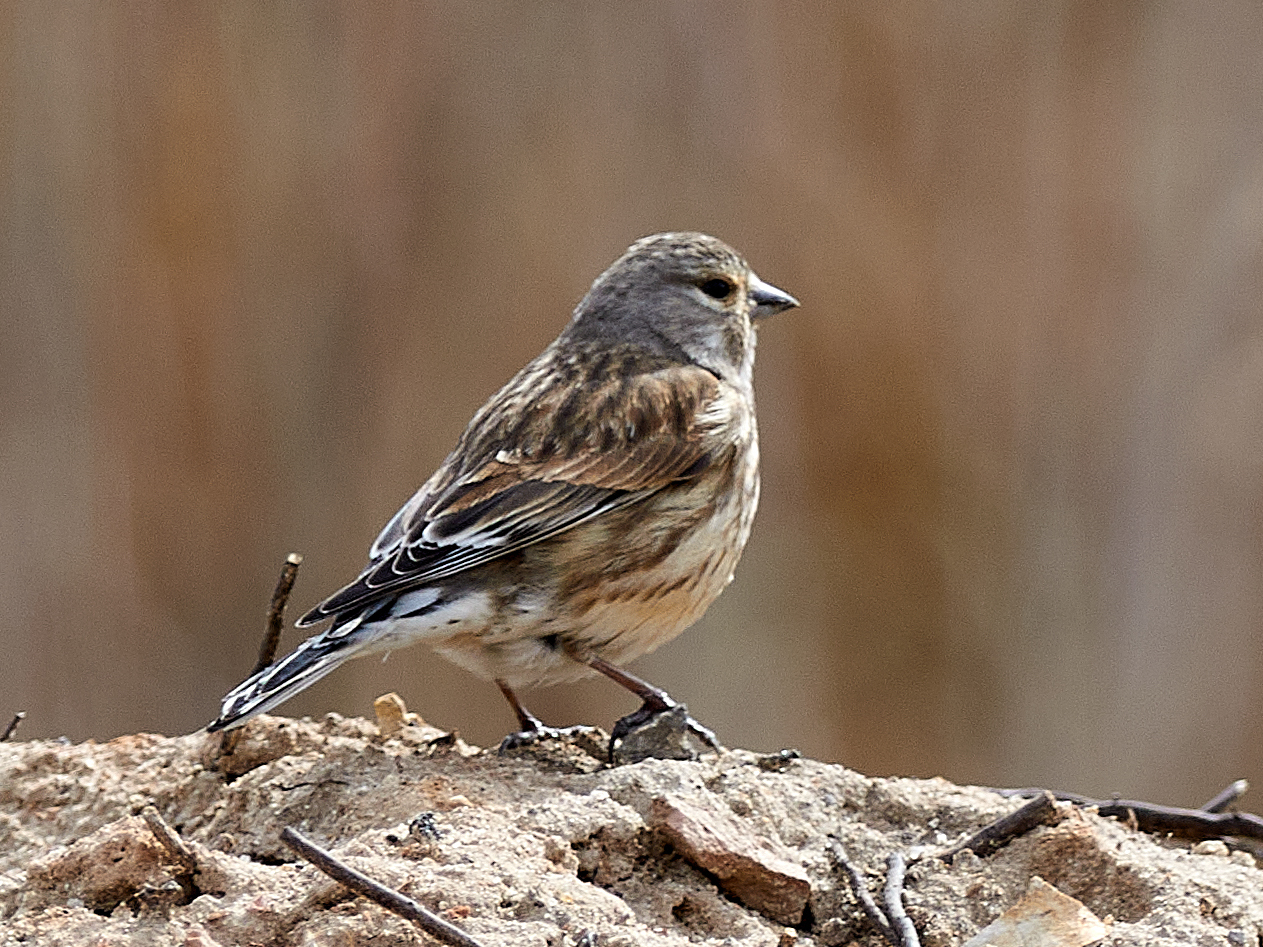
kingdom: Animalia
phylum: Chordata
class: Aves
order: Passeriformes
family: Fringillidae
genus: Linaria
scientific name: Linaria cannabina
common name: Common linnet
